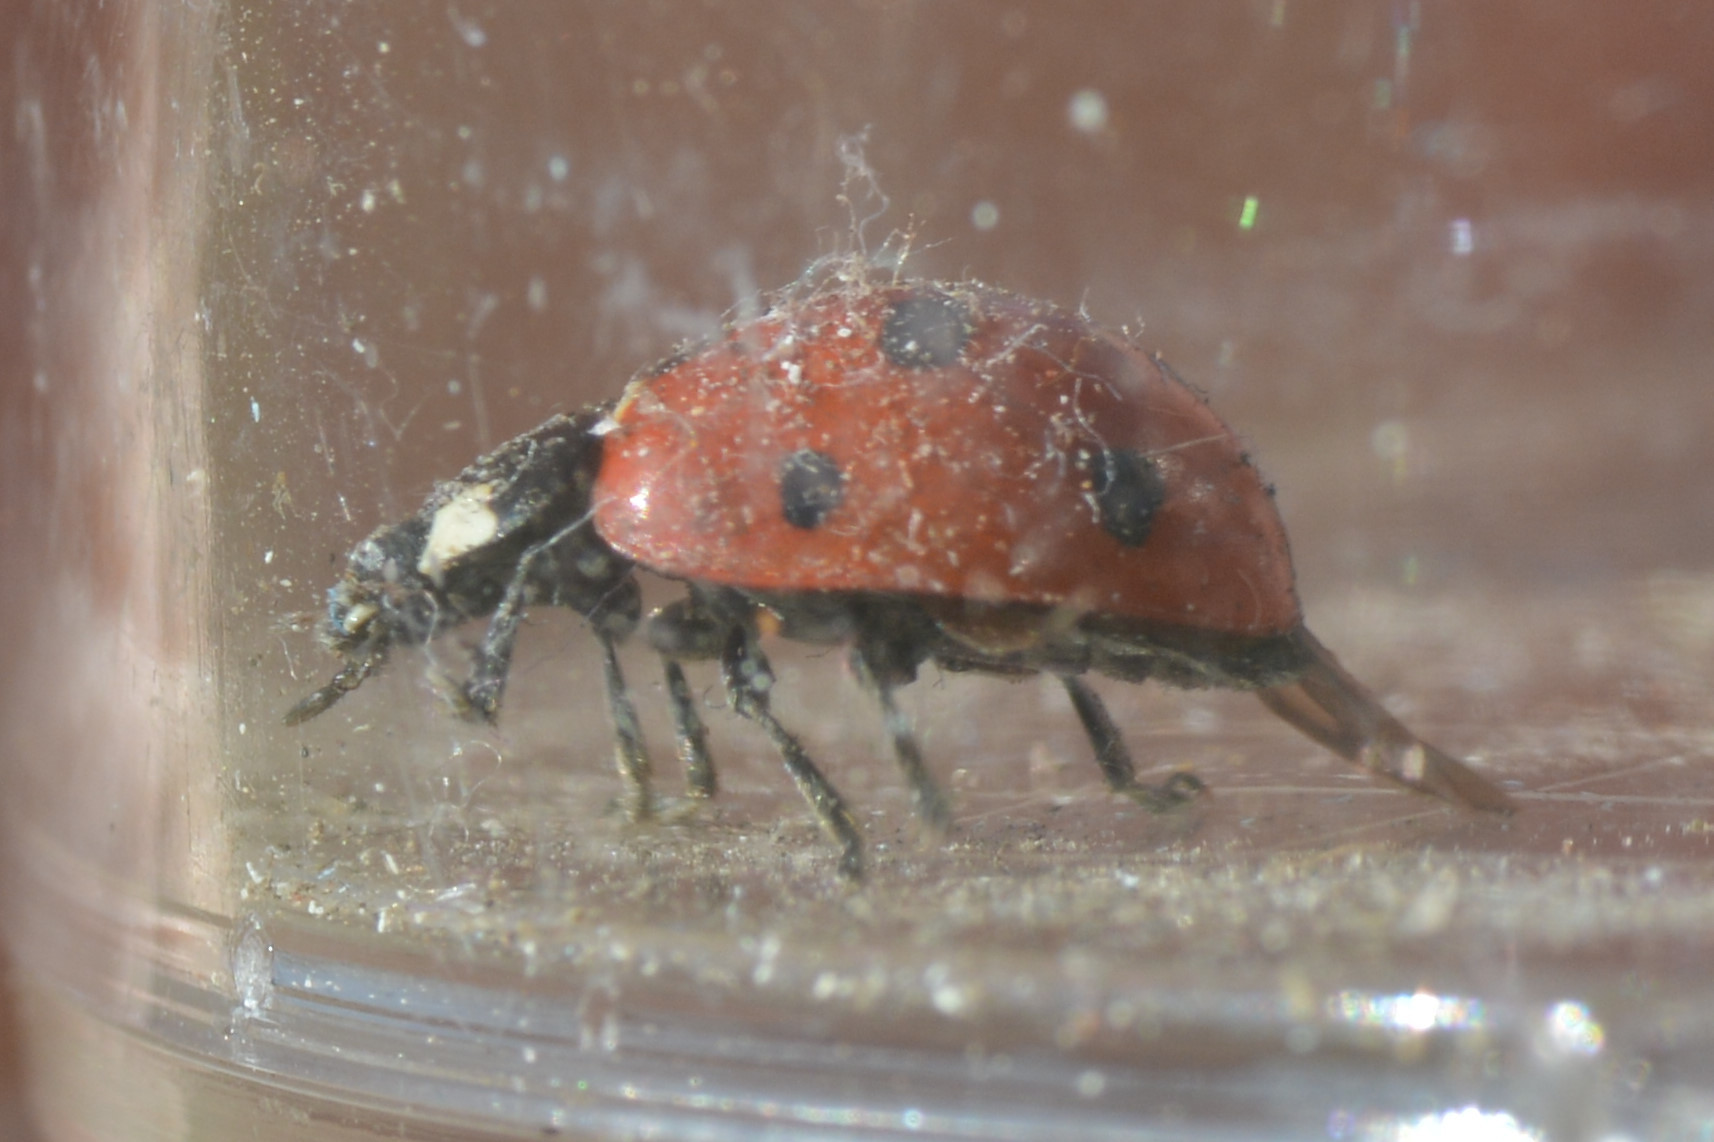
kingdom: Animalia
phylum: Arthropoda
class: Insecta
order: Coleoptera
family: Coccinellidae
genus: Coccinella
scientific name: Coccinella septempunctata
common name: Sevenspotted lady beetle
